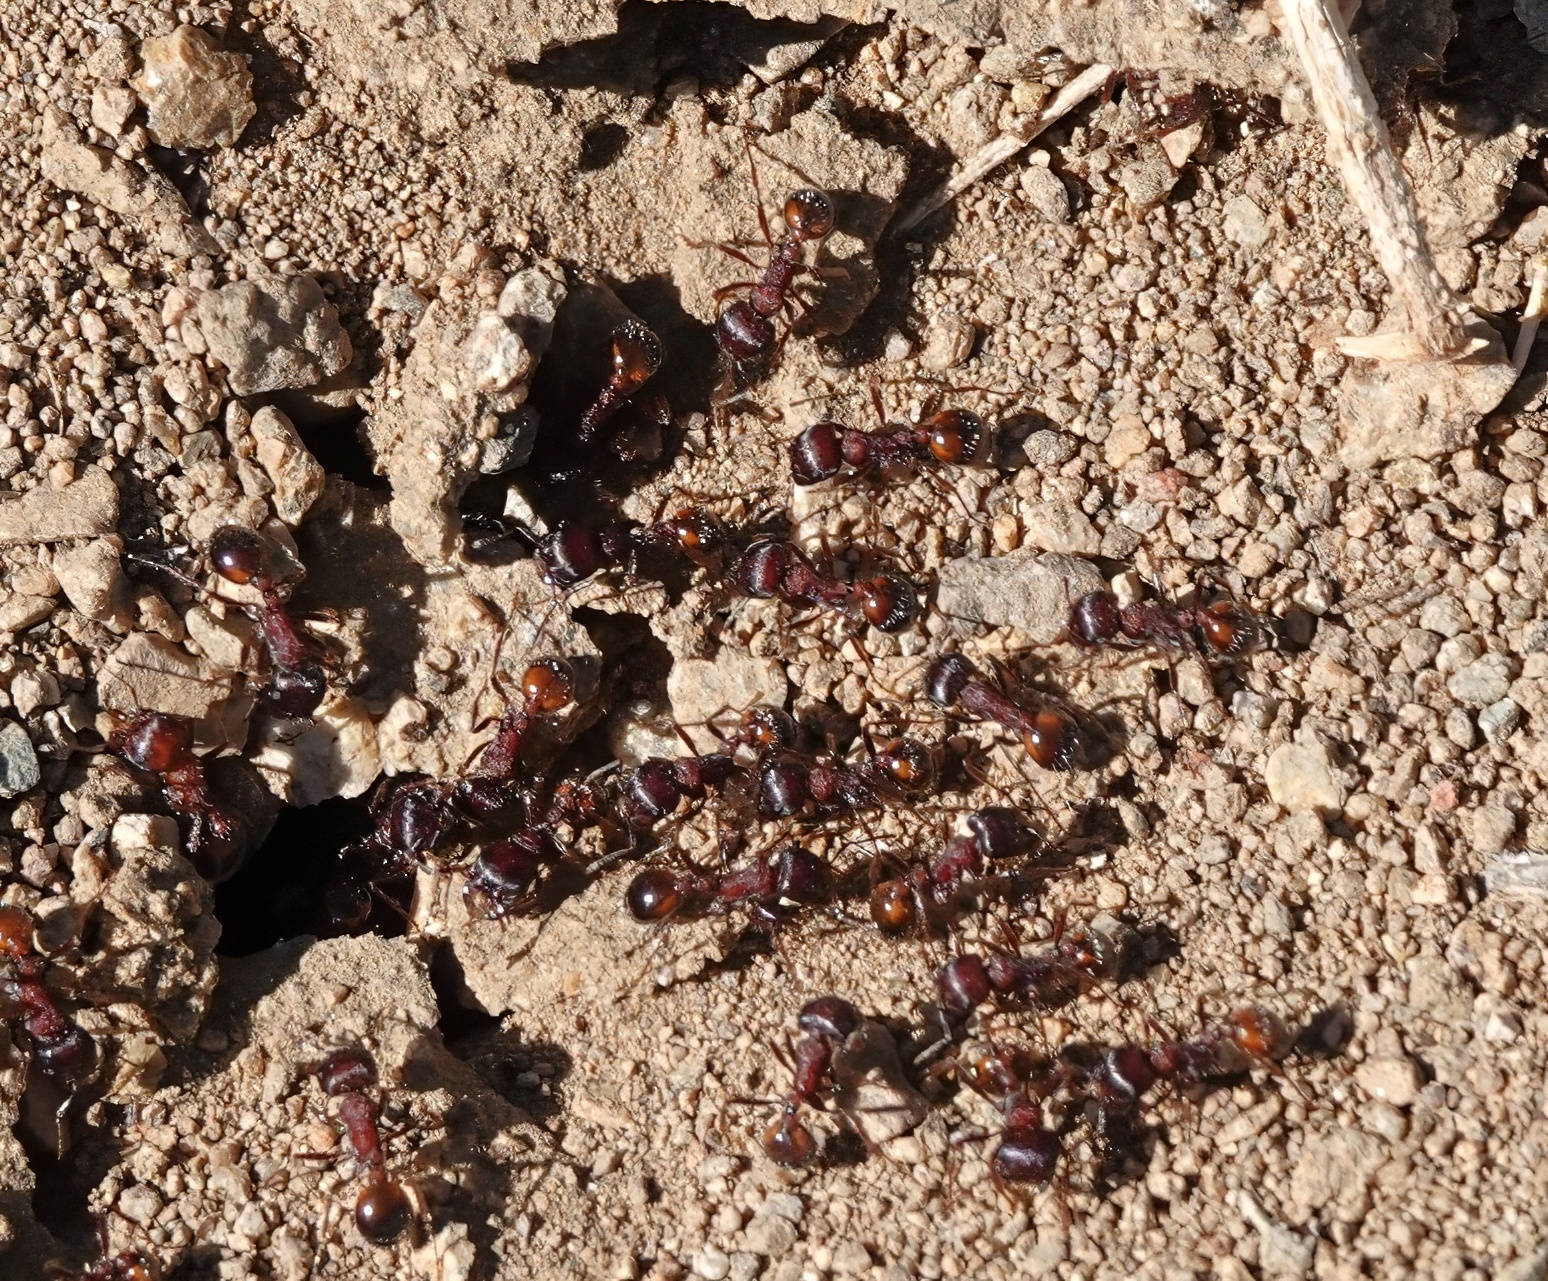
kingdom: Animalia
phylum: Arthropoda
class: Insecta
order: Hymenoptera
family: Formicidae
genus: Pogonomyrmex
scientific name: Pogonomyrmex rugosus
